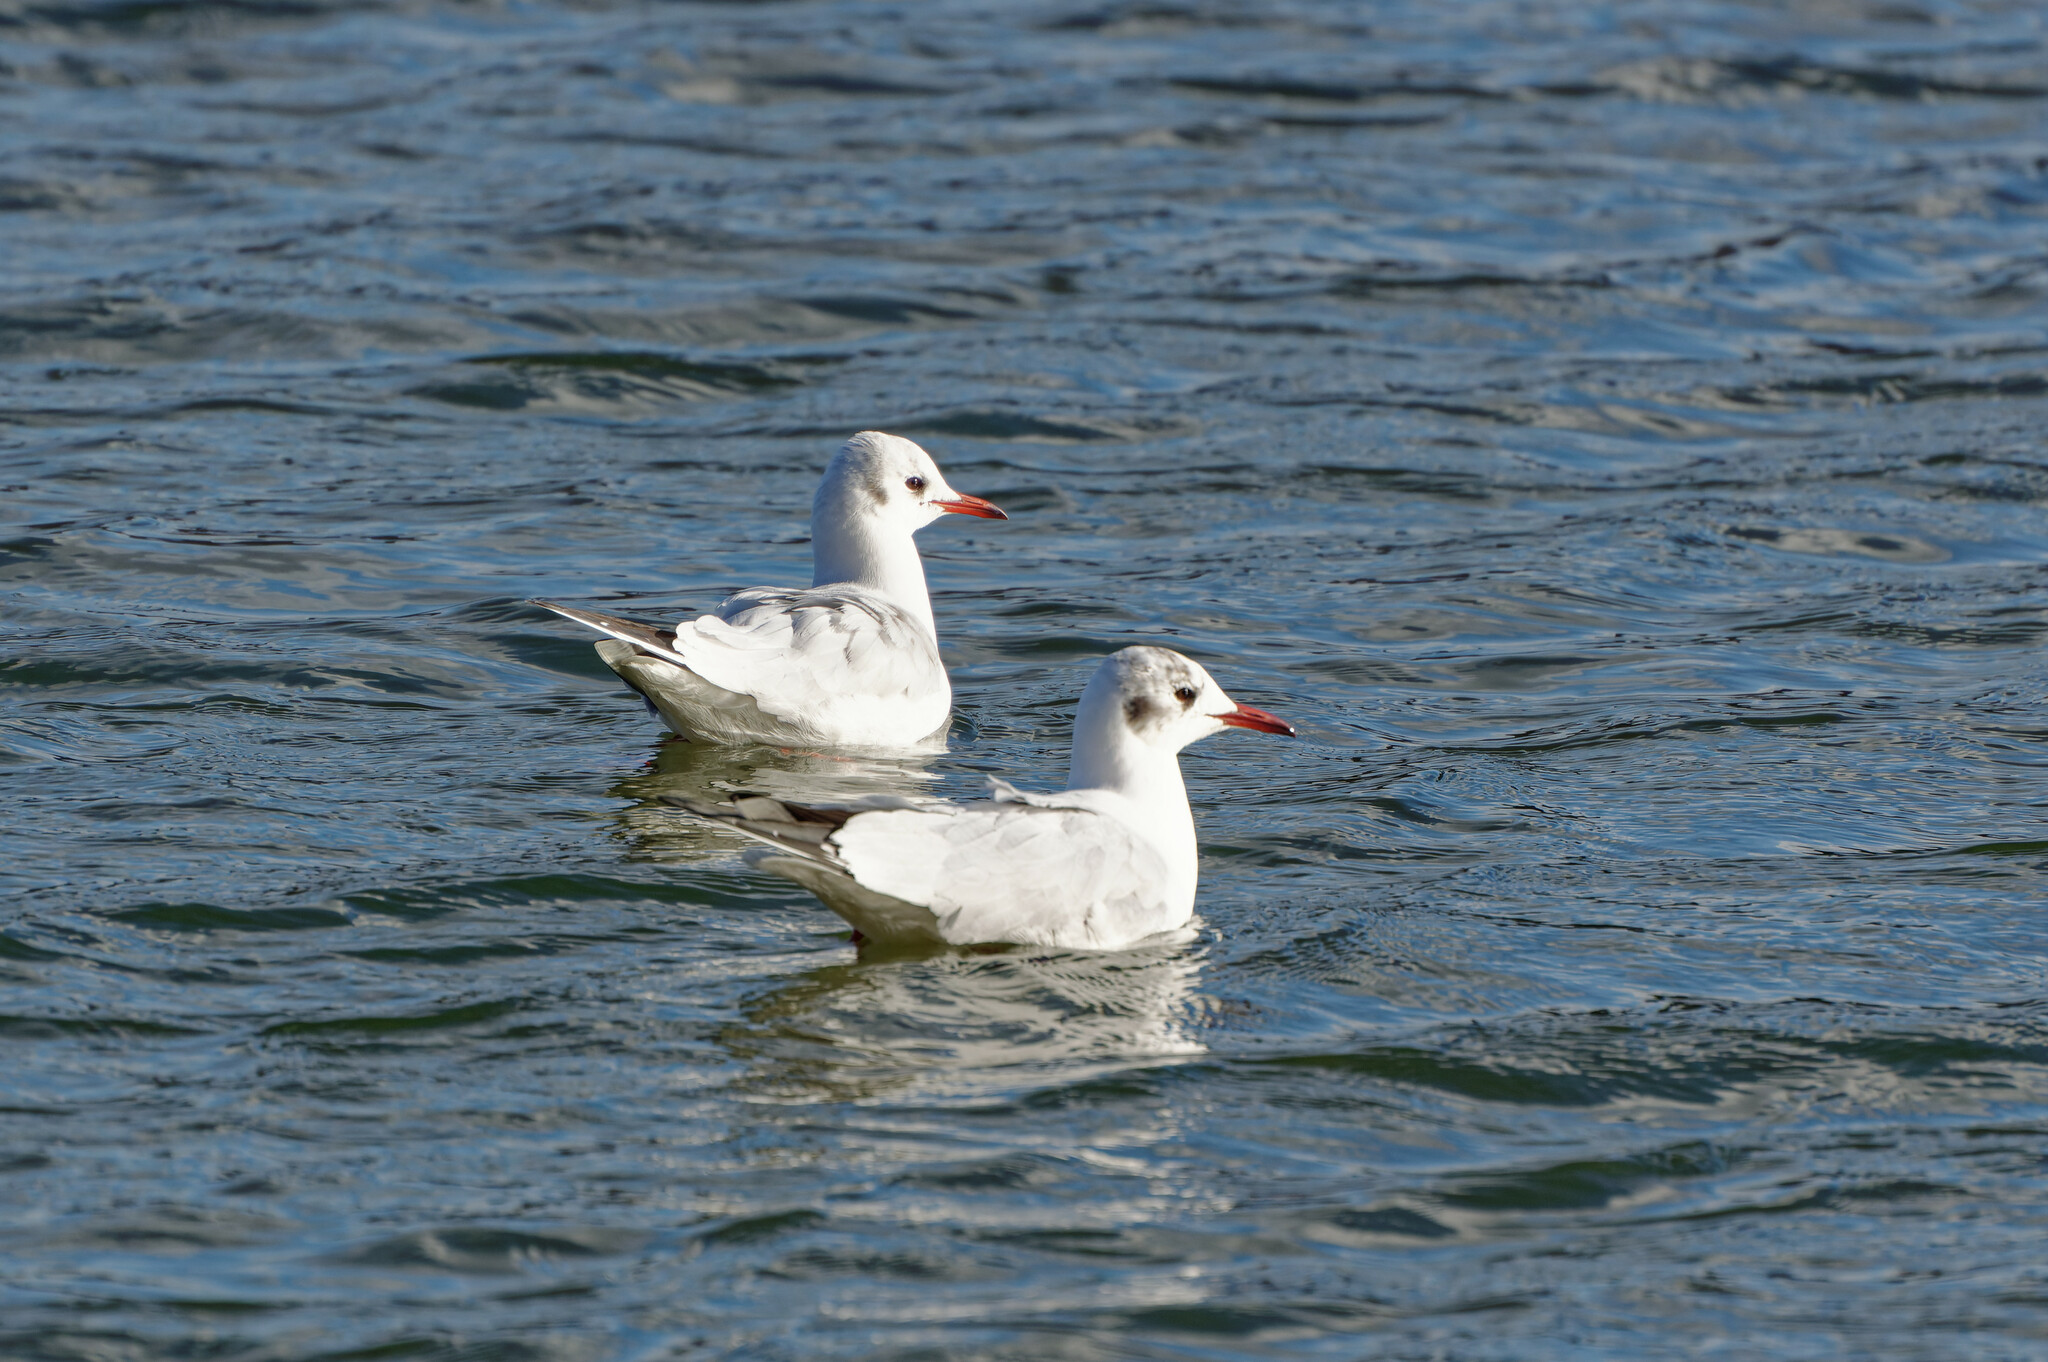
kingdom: Animalia
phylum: Chordata
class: Aves
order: Charadriiformes
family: Laridae
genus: Chroicocephalus
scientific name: Chroicocephalus ridibundus
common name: Black-headed gull
